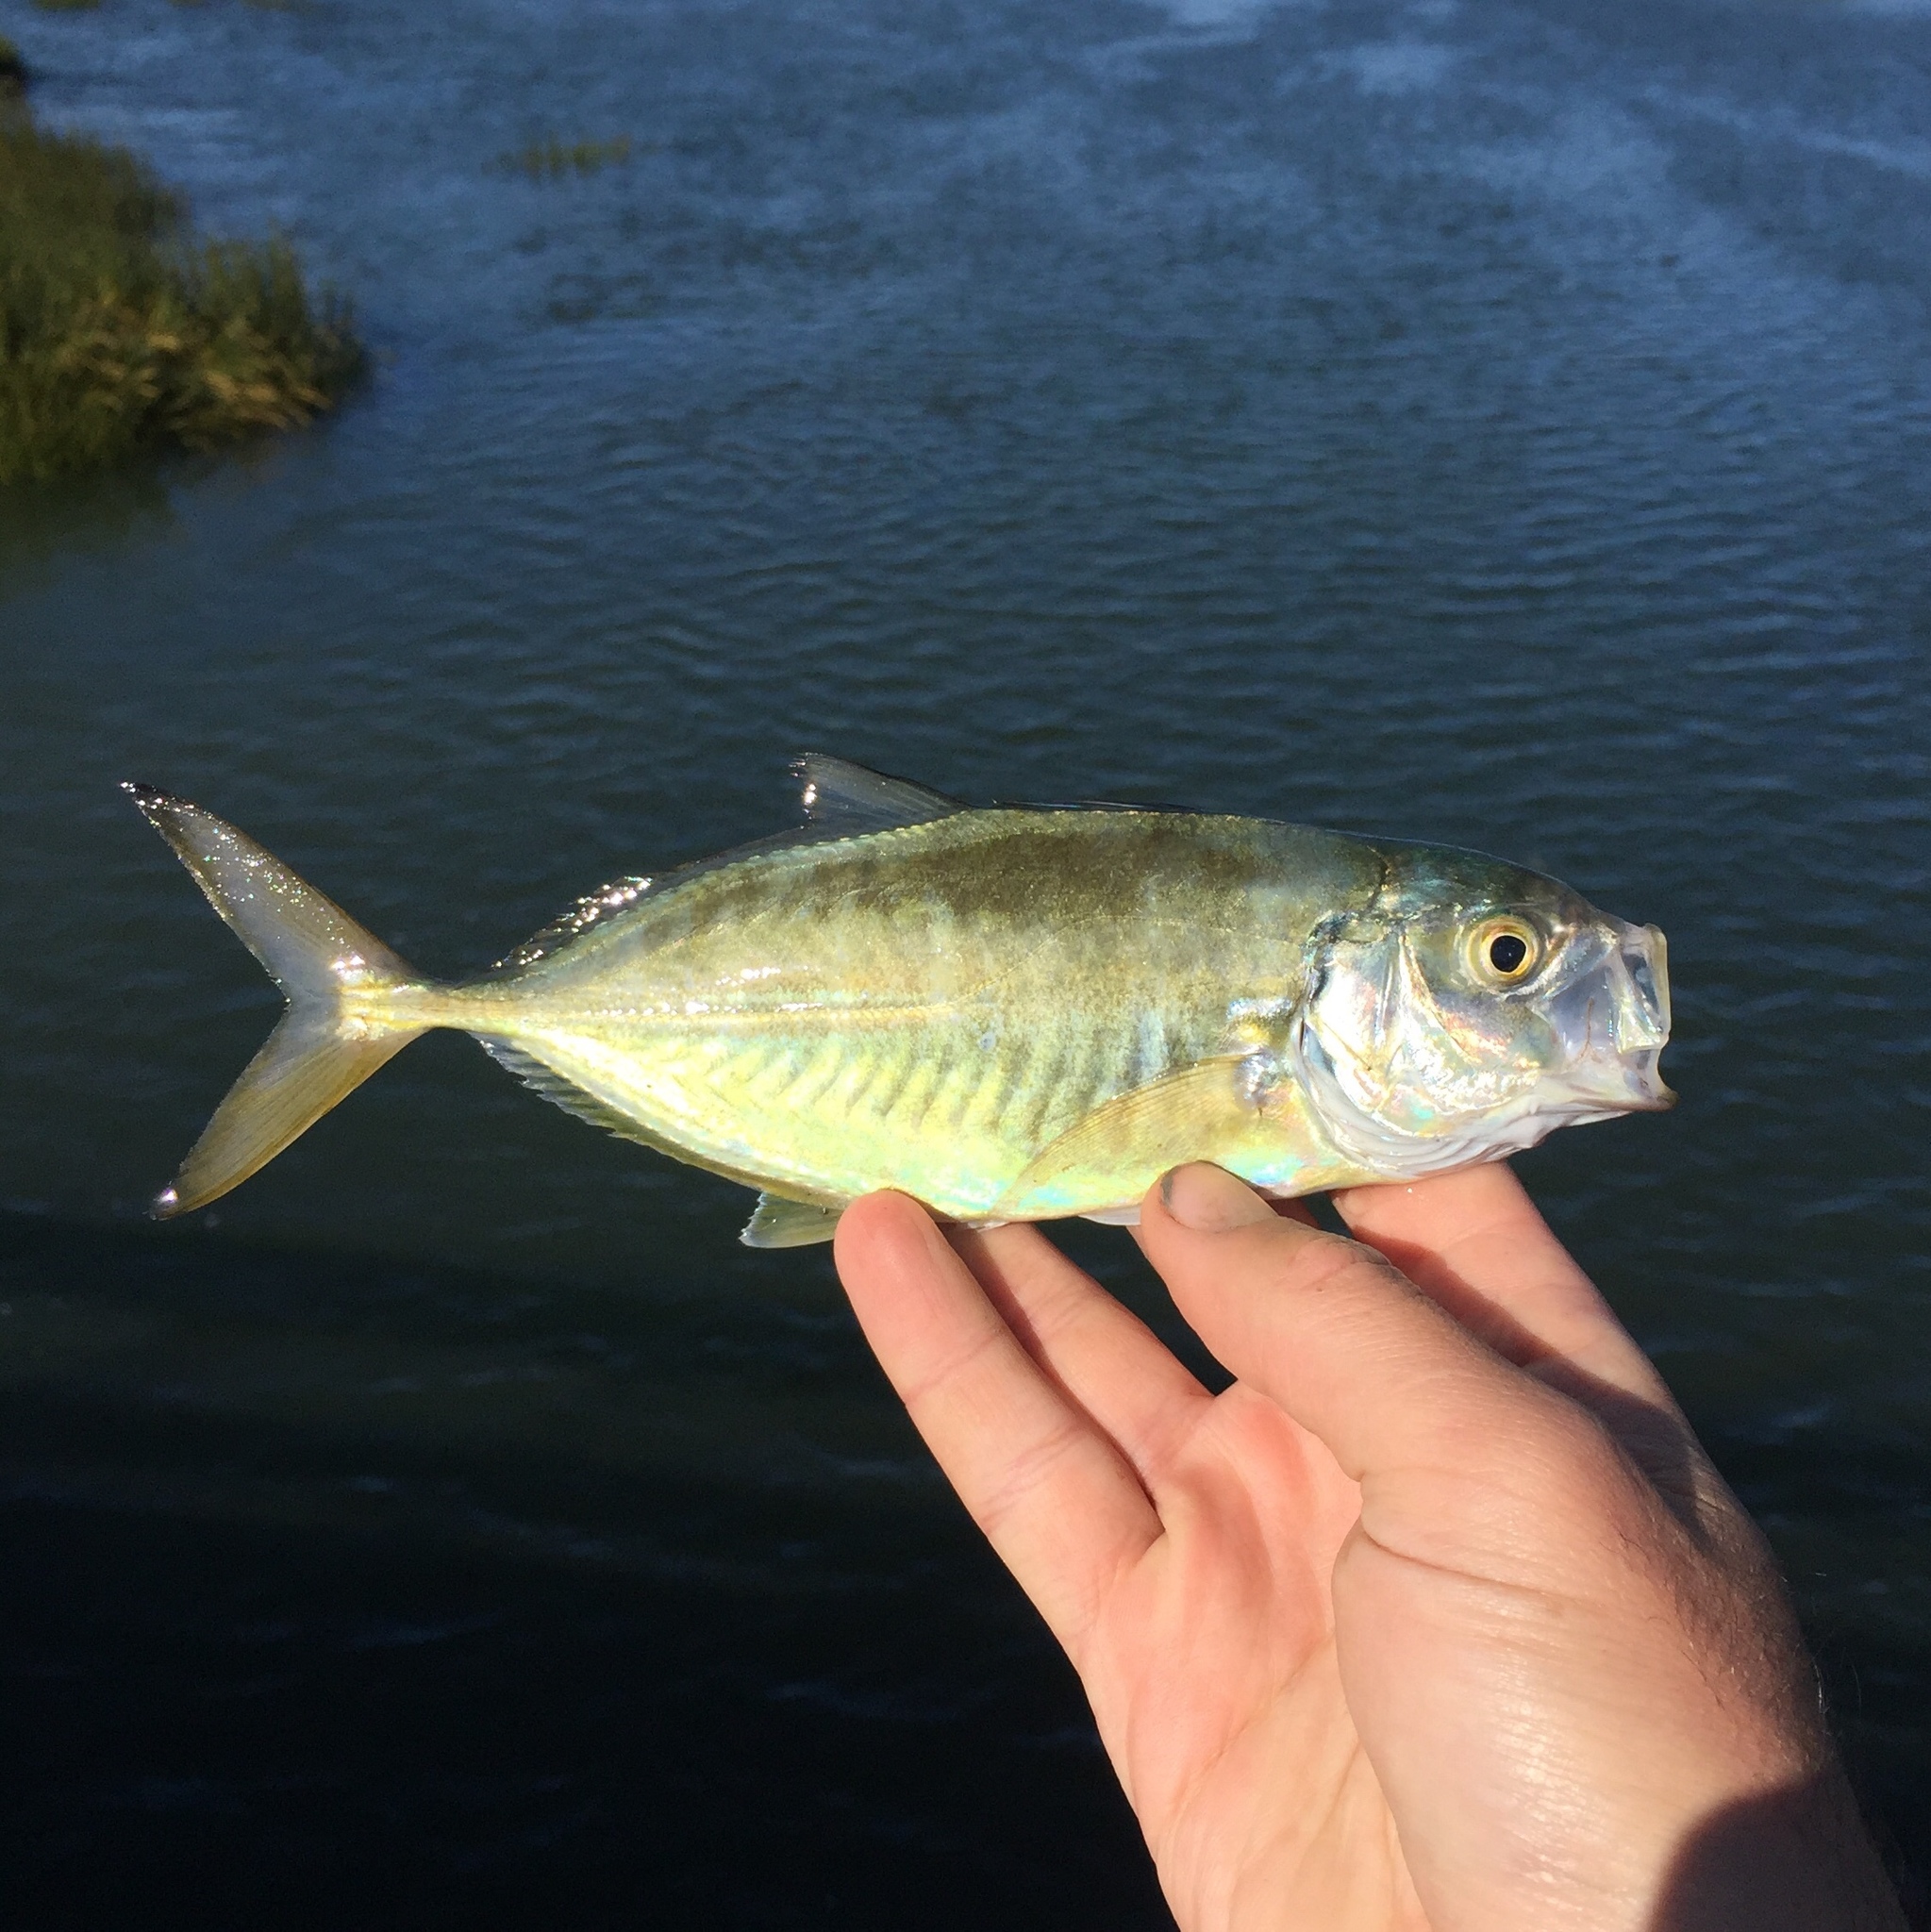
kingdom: Animalia
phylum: Chordata
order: Perciformes
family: Carangidae
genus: Caranx
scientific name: Caranx crysos
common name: Blue runner
